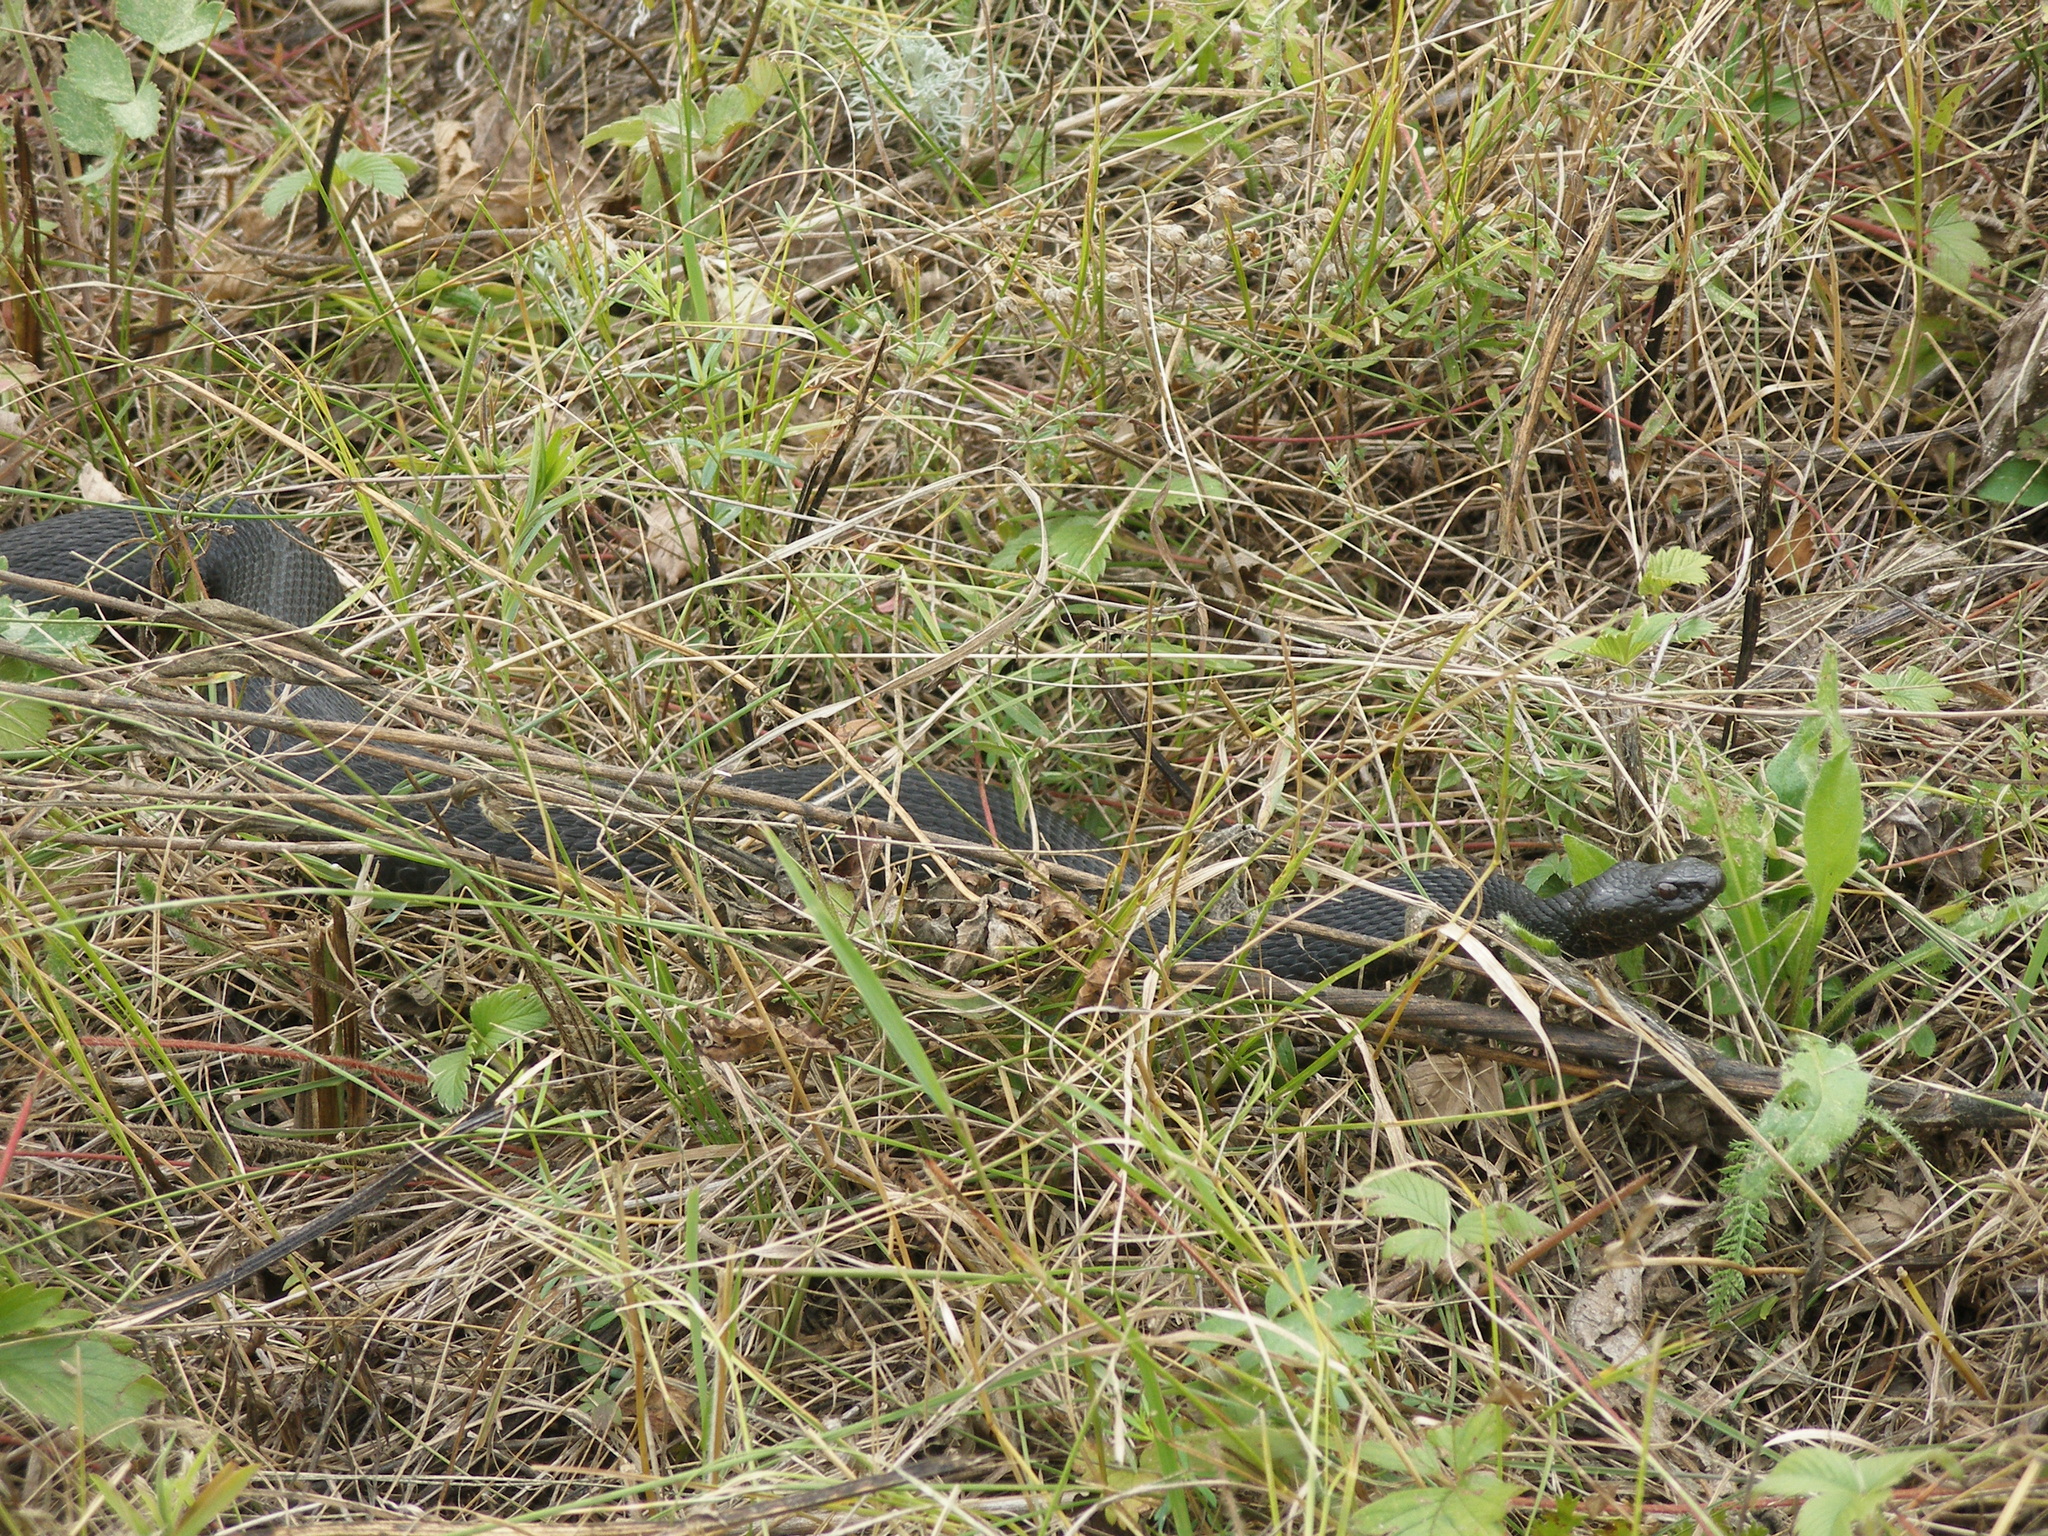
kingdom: Animalia
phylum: Chordata
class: Squamata
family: Viperidae
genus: Vipera
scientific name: Vipera nikolskii
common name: Adder
